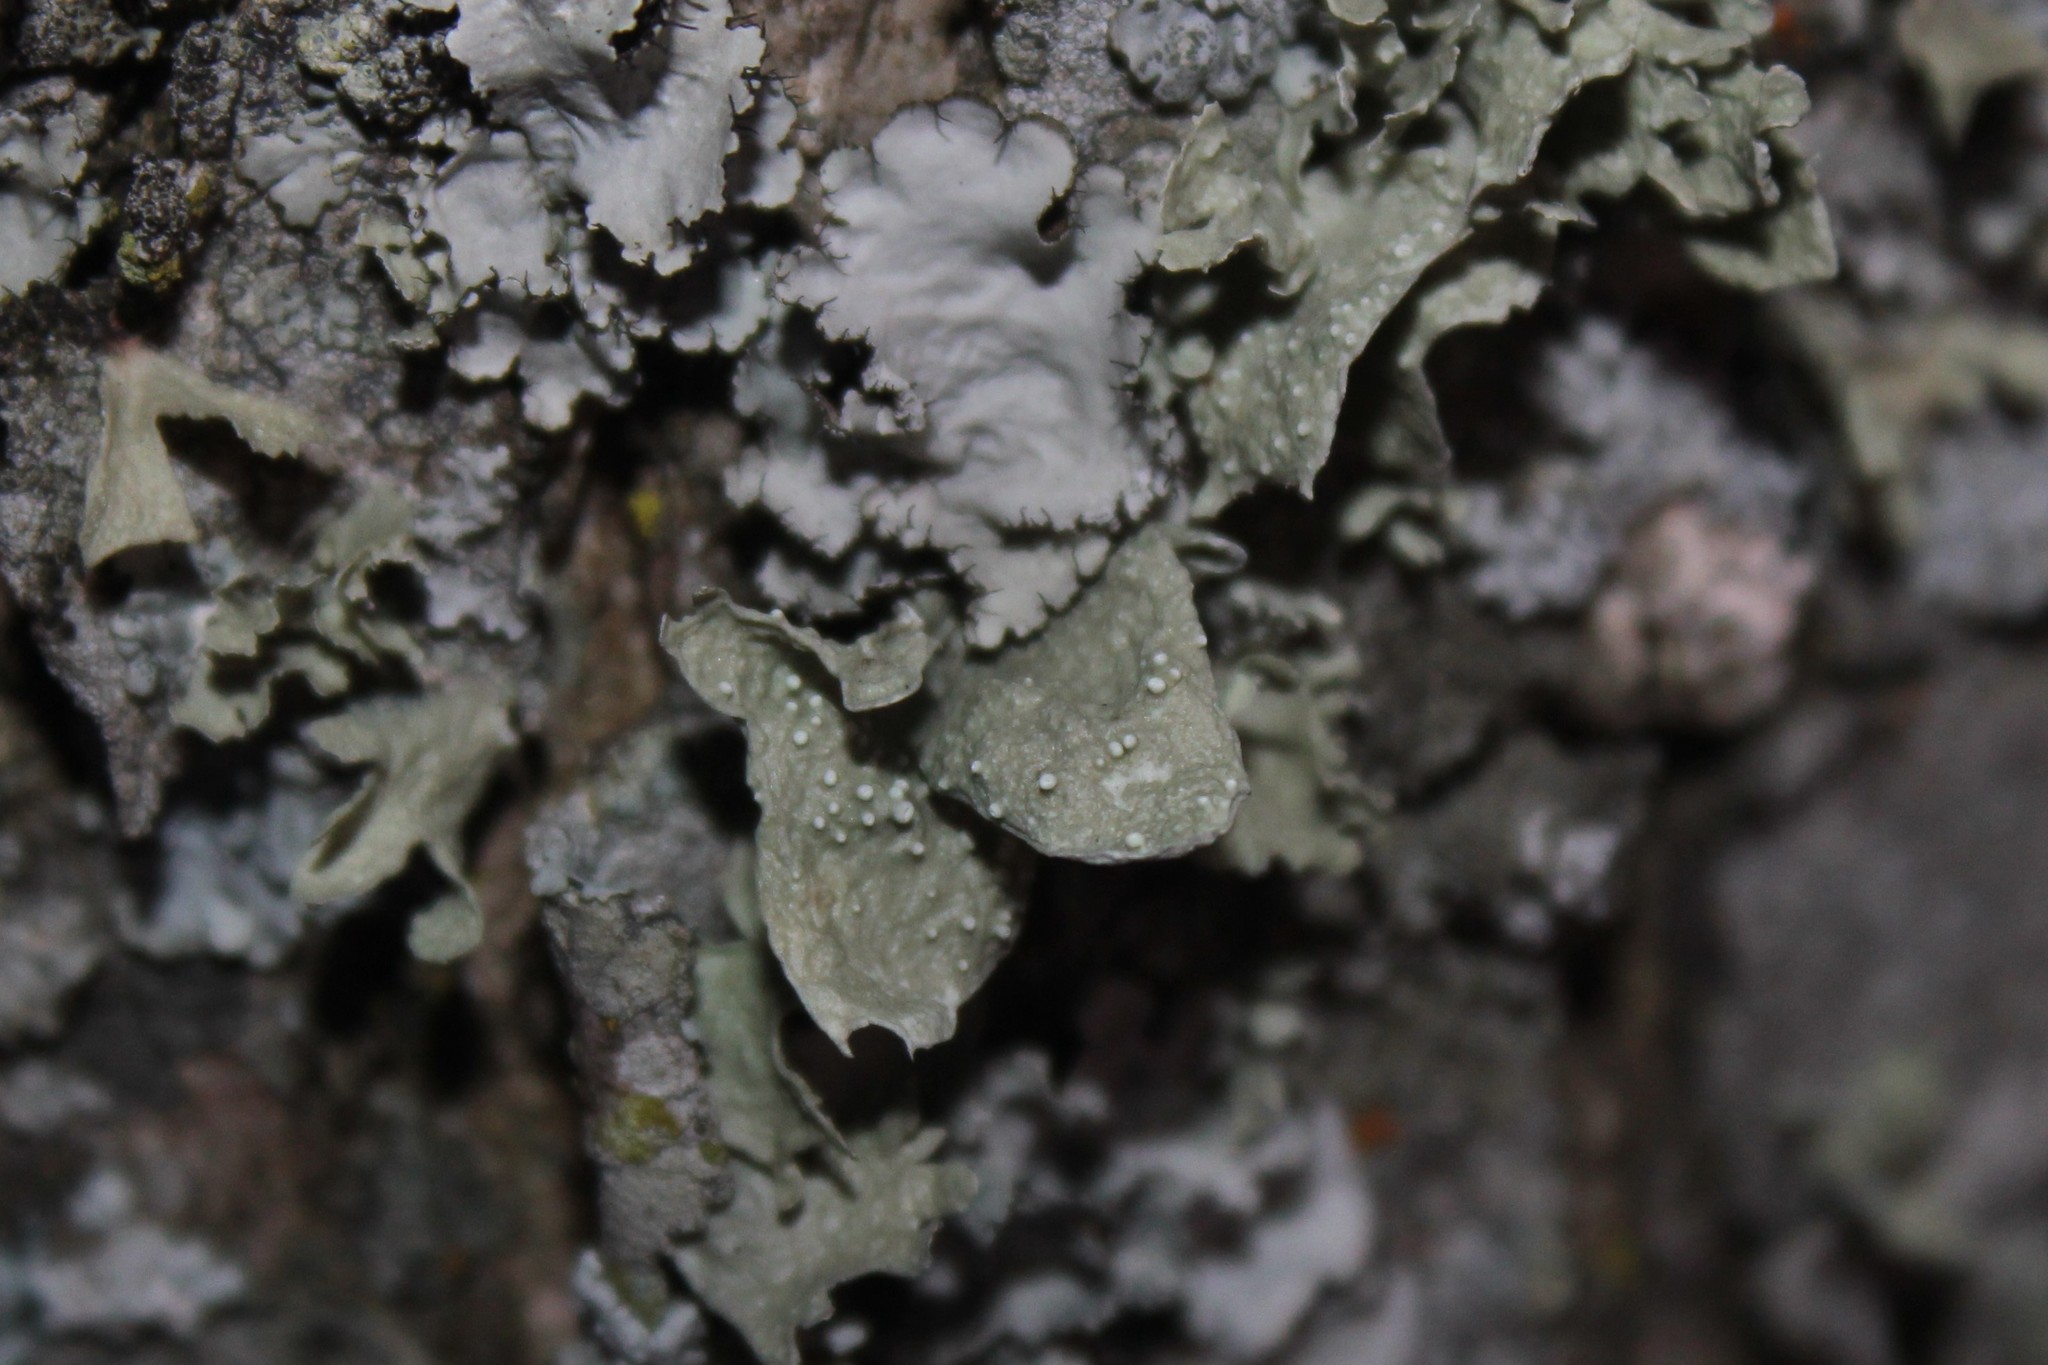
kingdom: Fungi
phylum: Ascomycota
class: Lecanoromycetes
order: Lecanorales
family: Parmeliaceae
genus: Flavopunctelia
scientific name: Flavopunctelia flaventior
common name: Speckled greenshield
